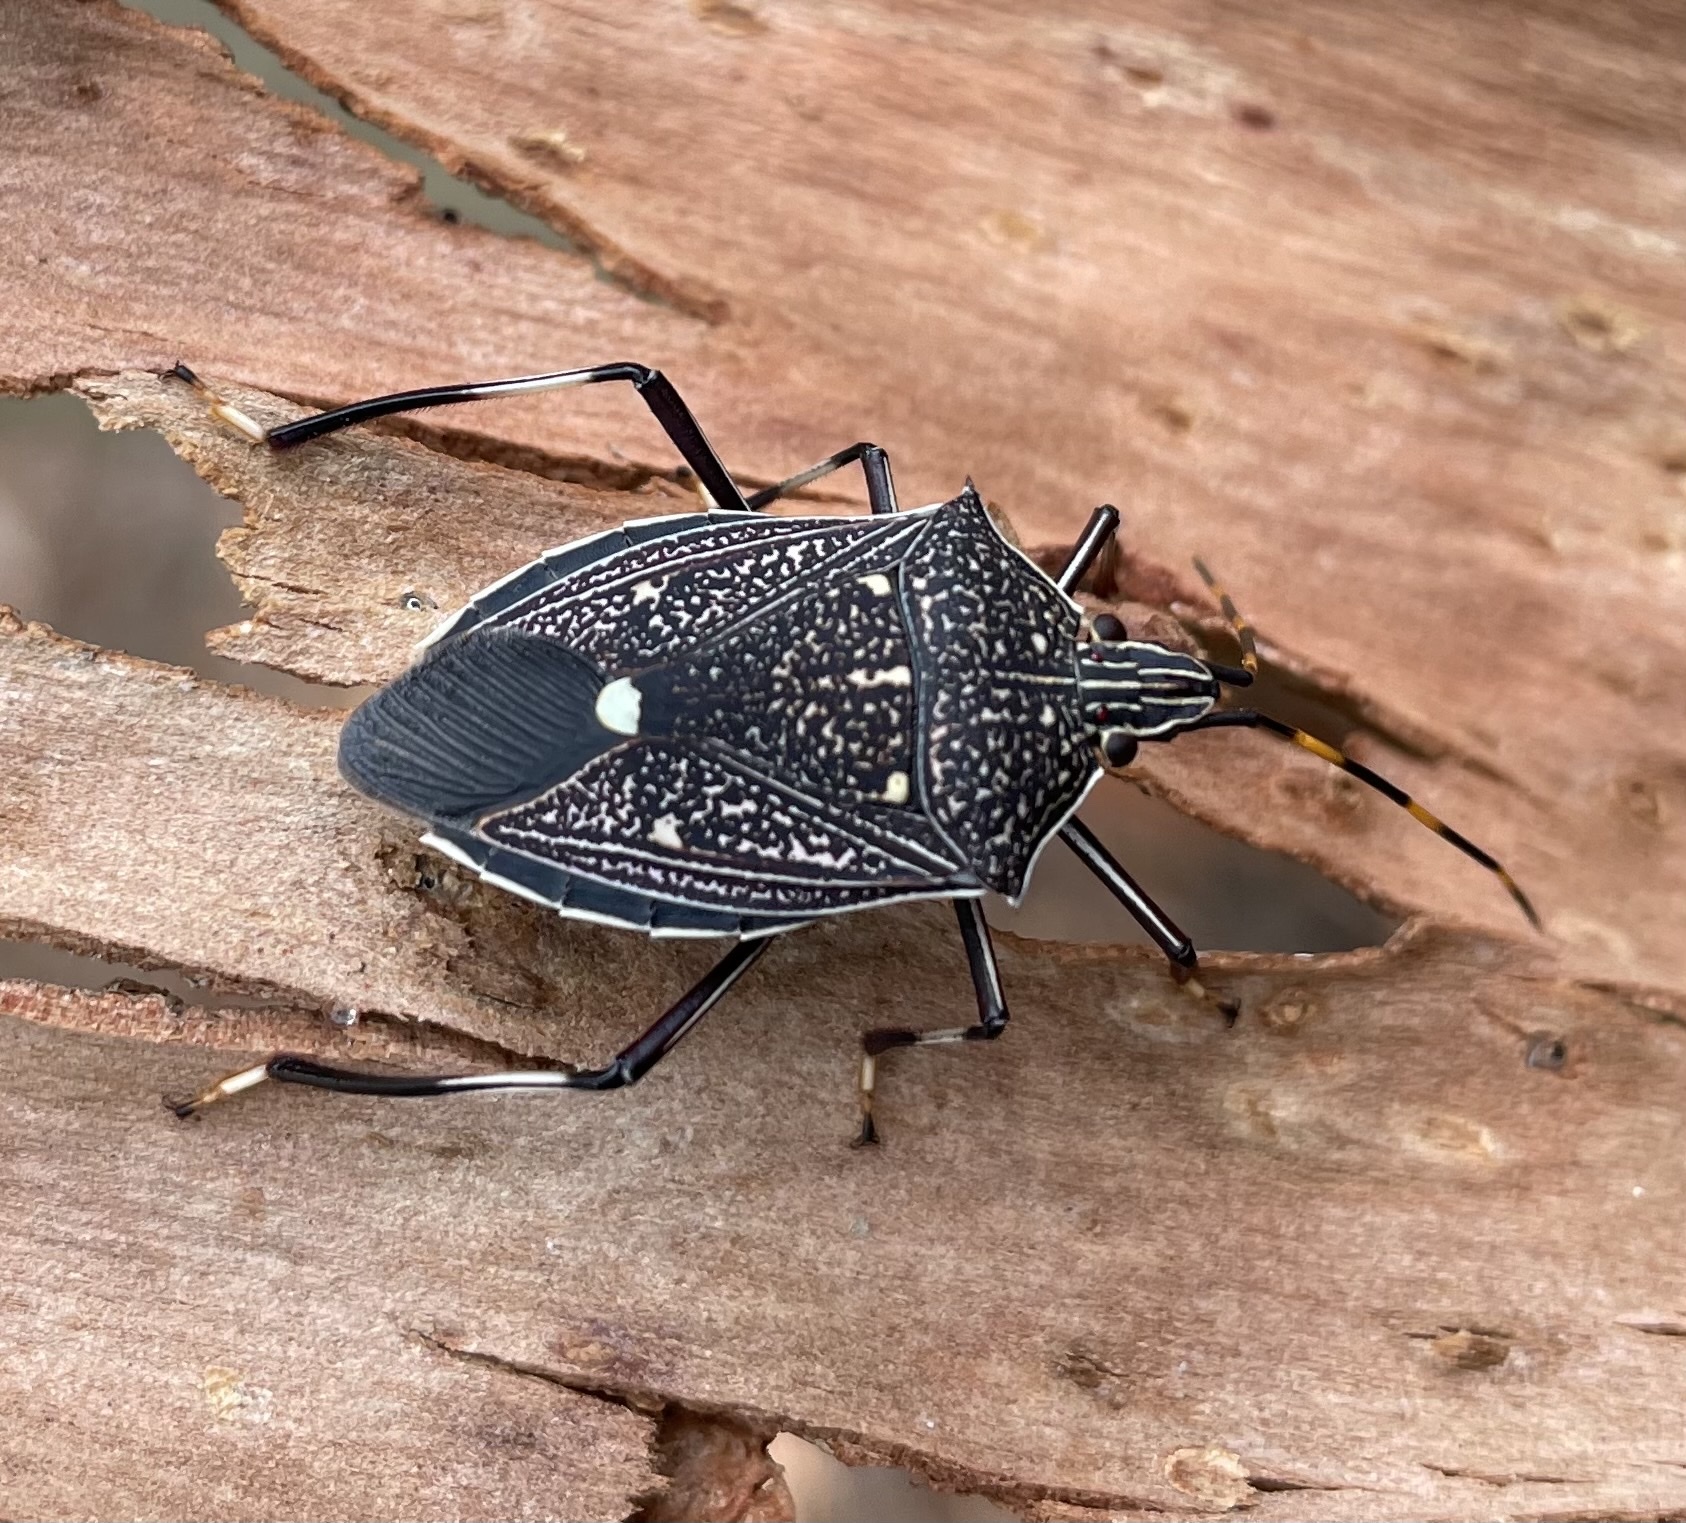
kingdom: Animalia
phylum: Arthropoda
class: Insecta
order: Hemiptera
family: Pentatomidae
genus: Poecilometis
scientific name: Poecilometis
